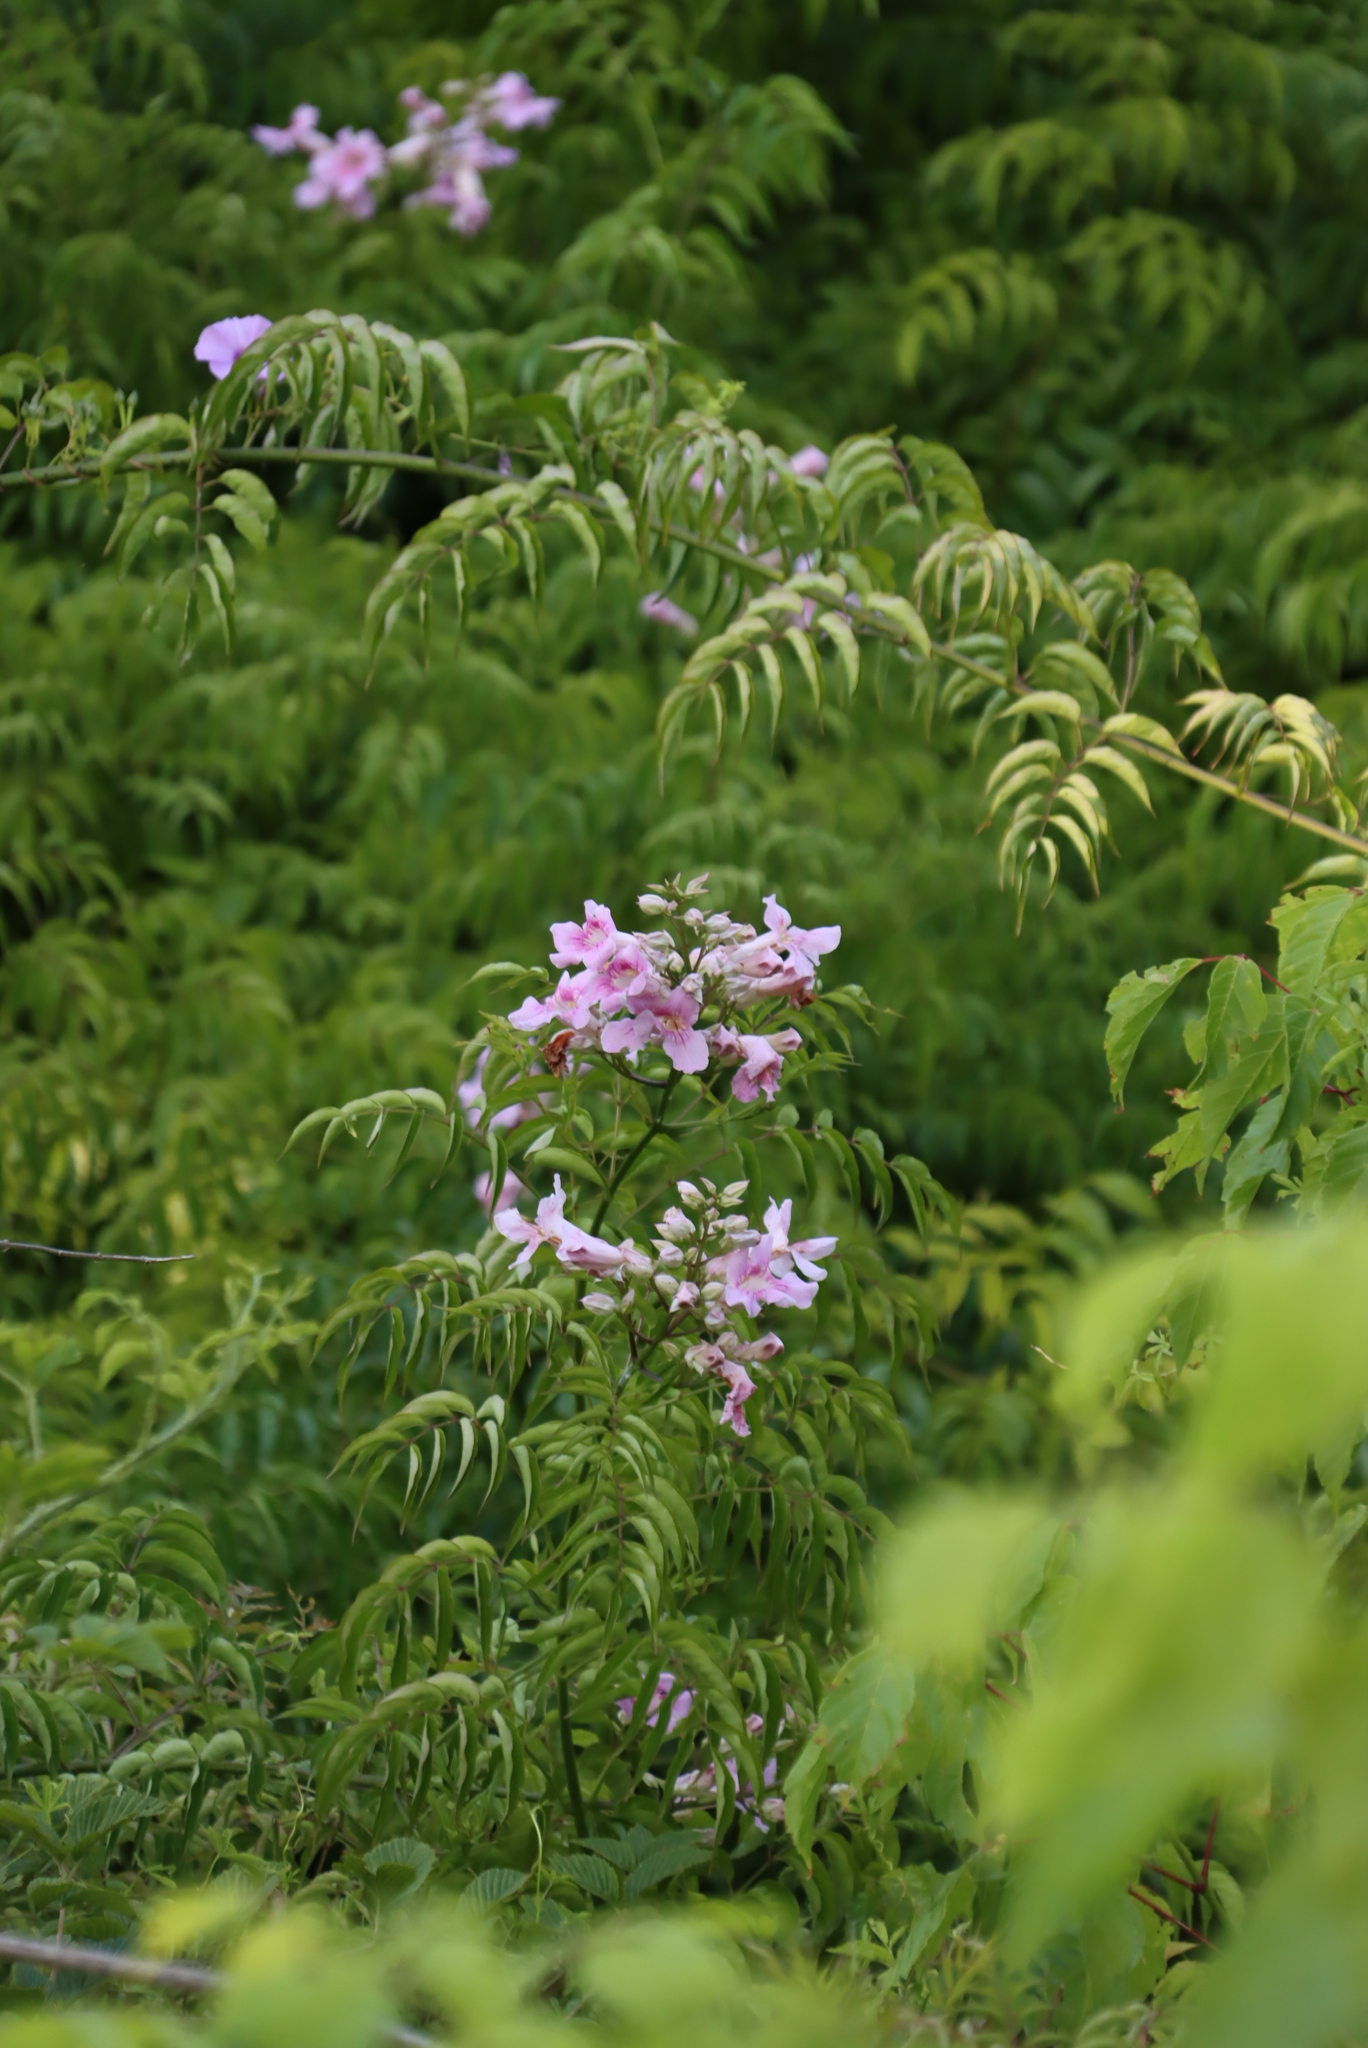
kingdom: Plantae
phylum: Tracheophyta
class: Magnoliopsida
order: Lamiales
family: Bignoniaceae
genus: Podranea
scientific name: Podranea ricasoliana
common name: Zimbabwe creeper
